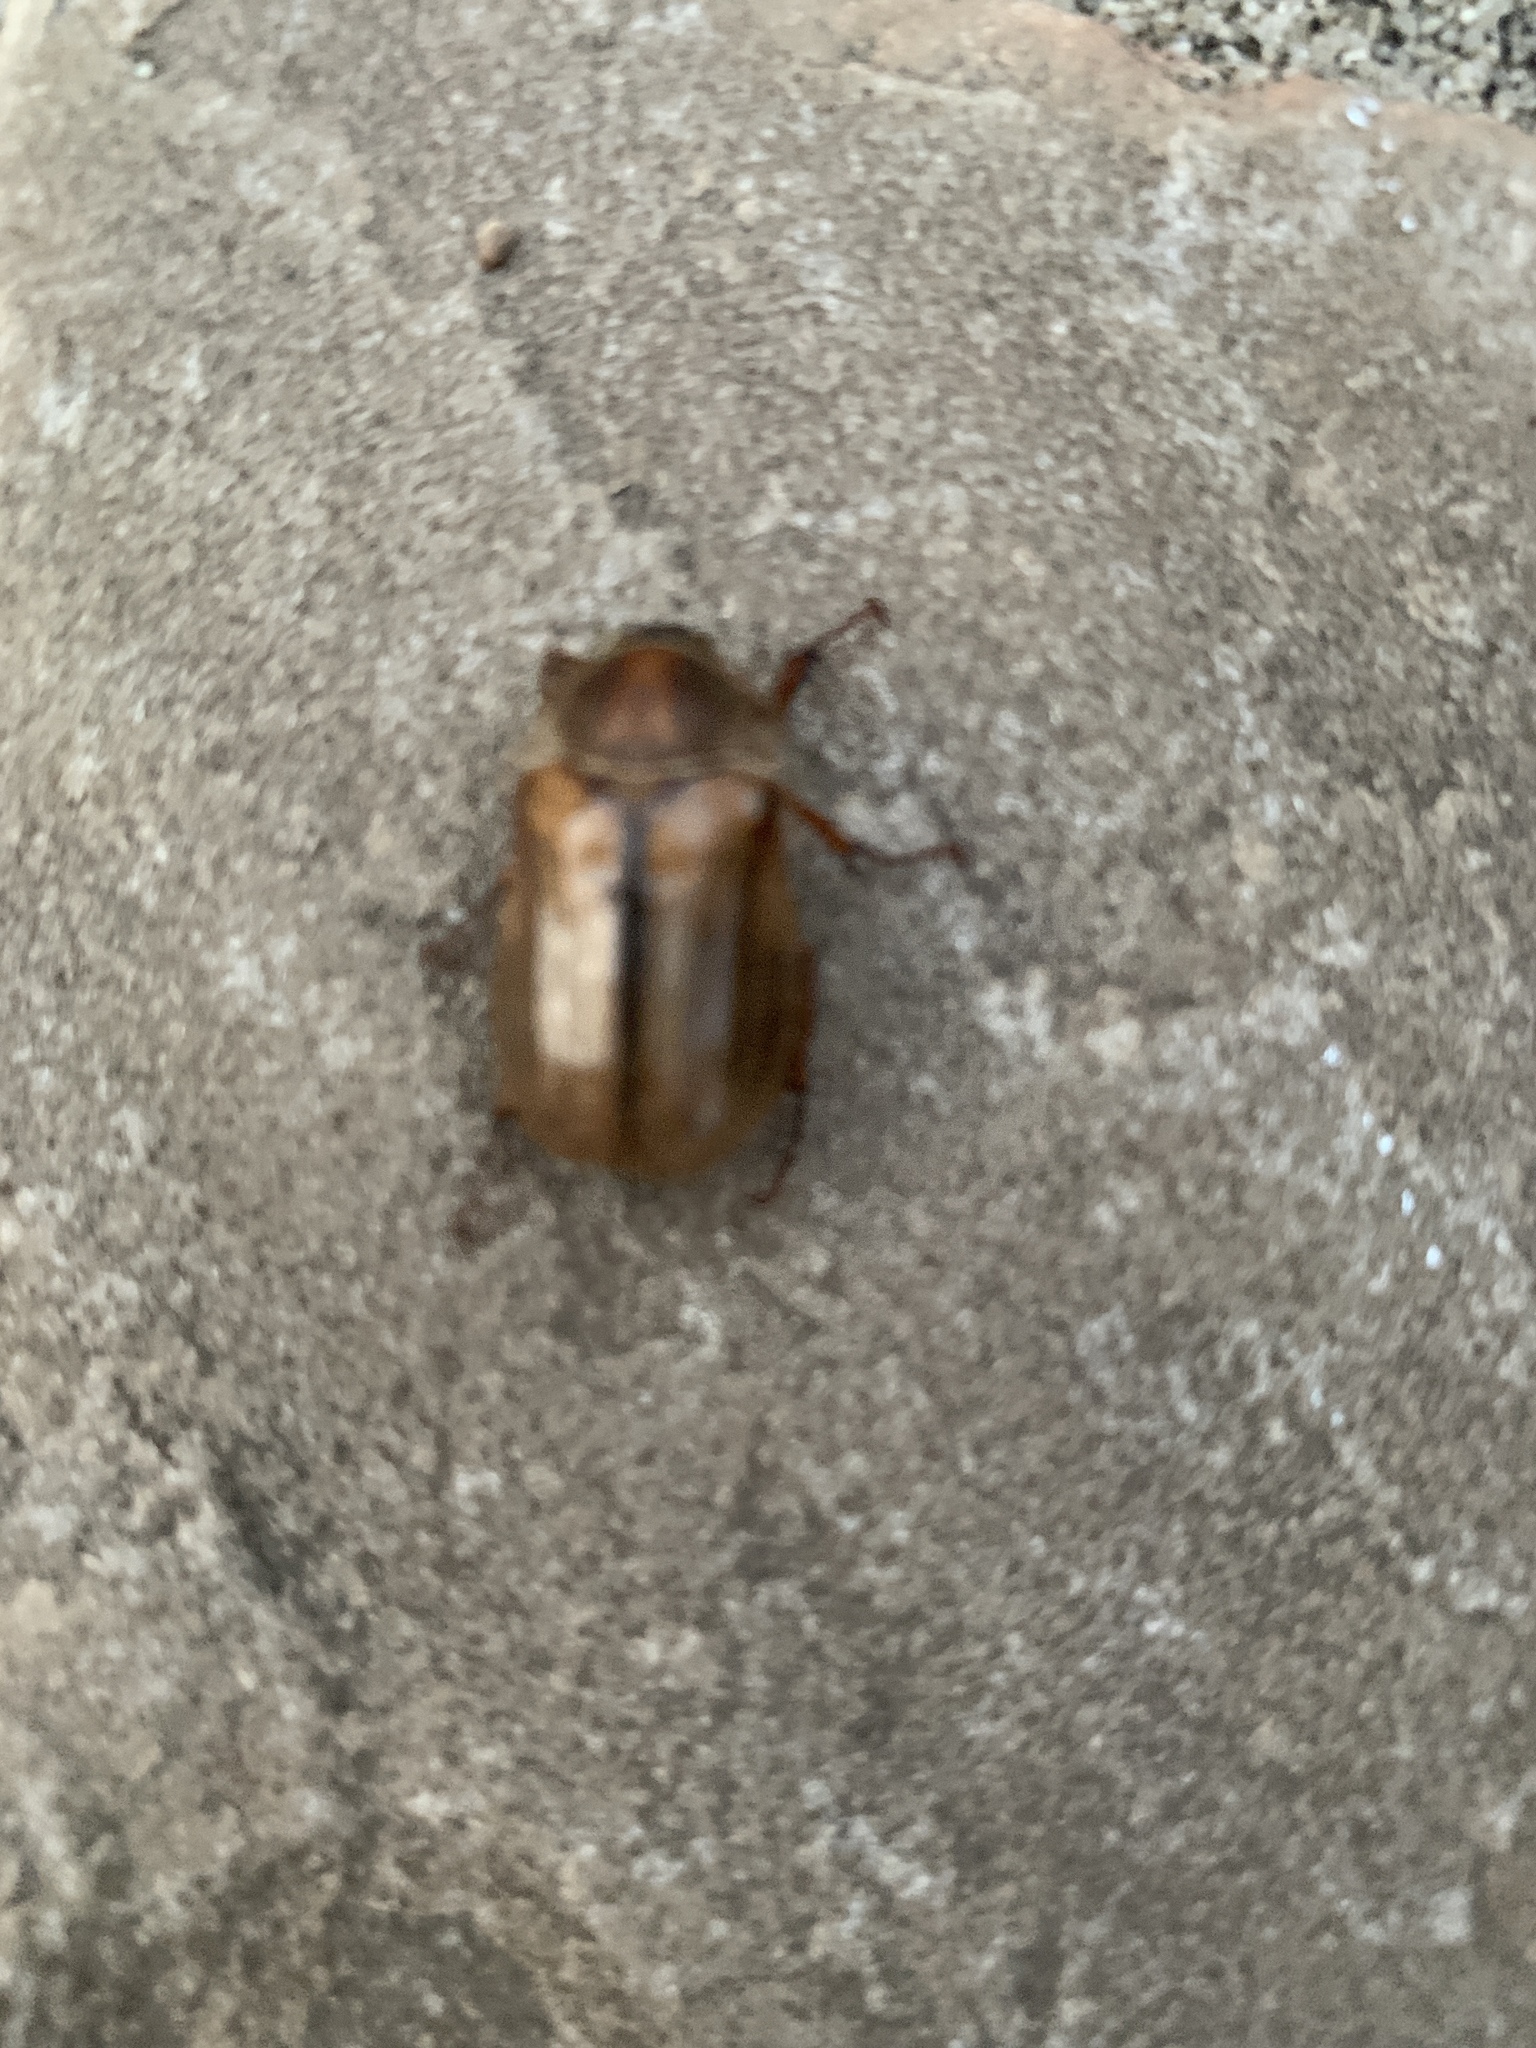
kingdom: Animalia
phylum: Arthropoda
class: Insecta
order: Coleoptera
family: Scarabaeidae
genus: Amphimallon
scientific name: Amphimallon solstitiale
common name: Summer chafer
